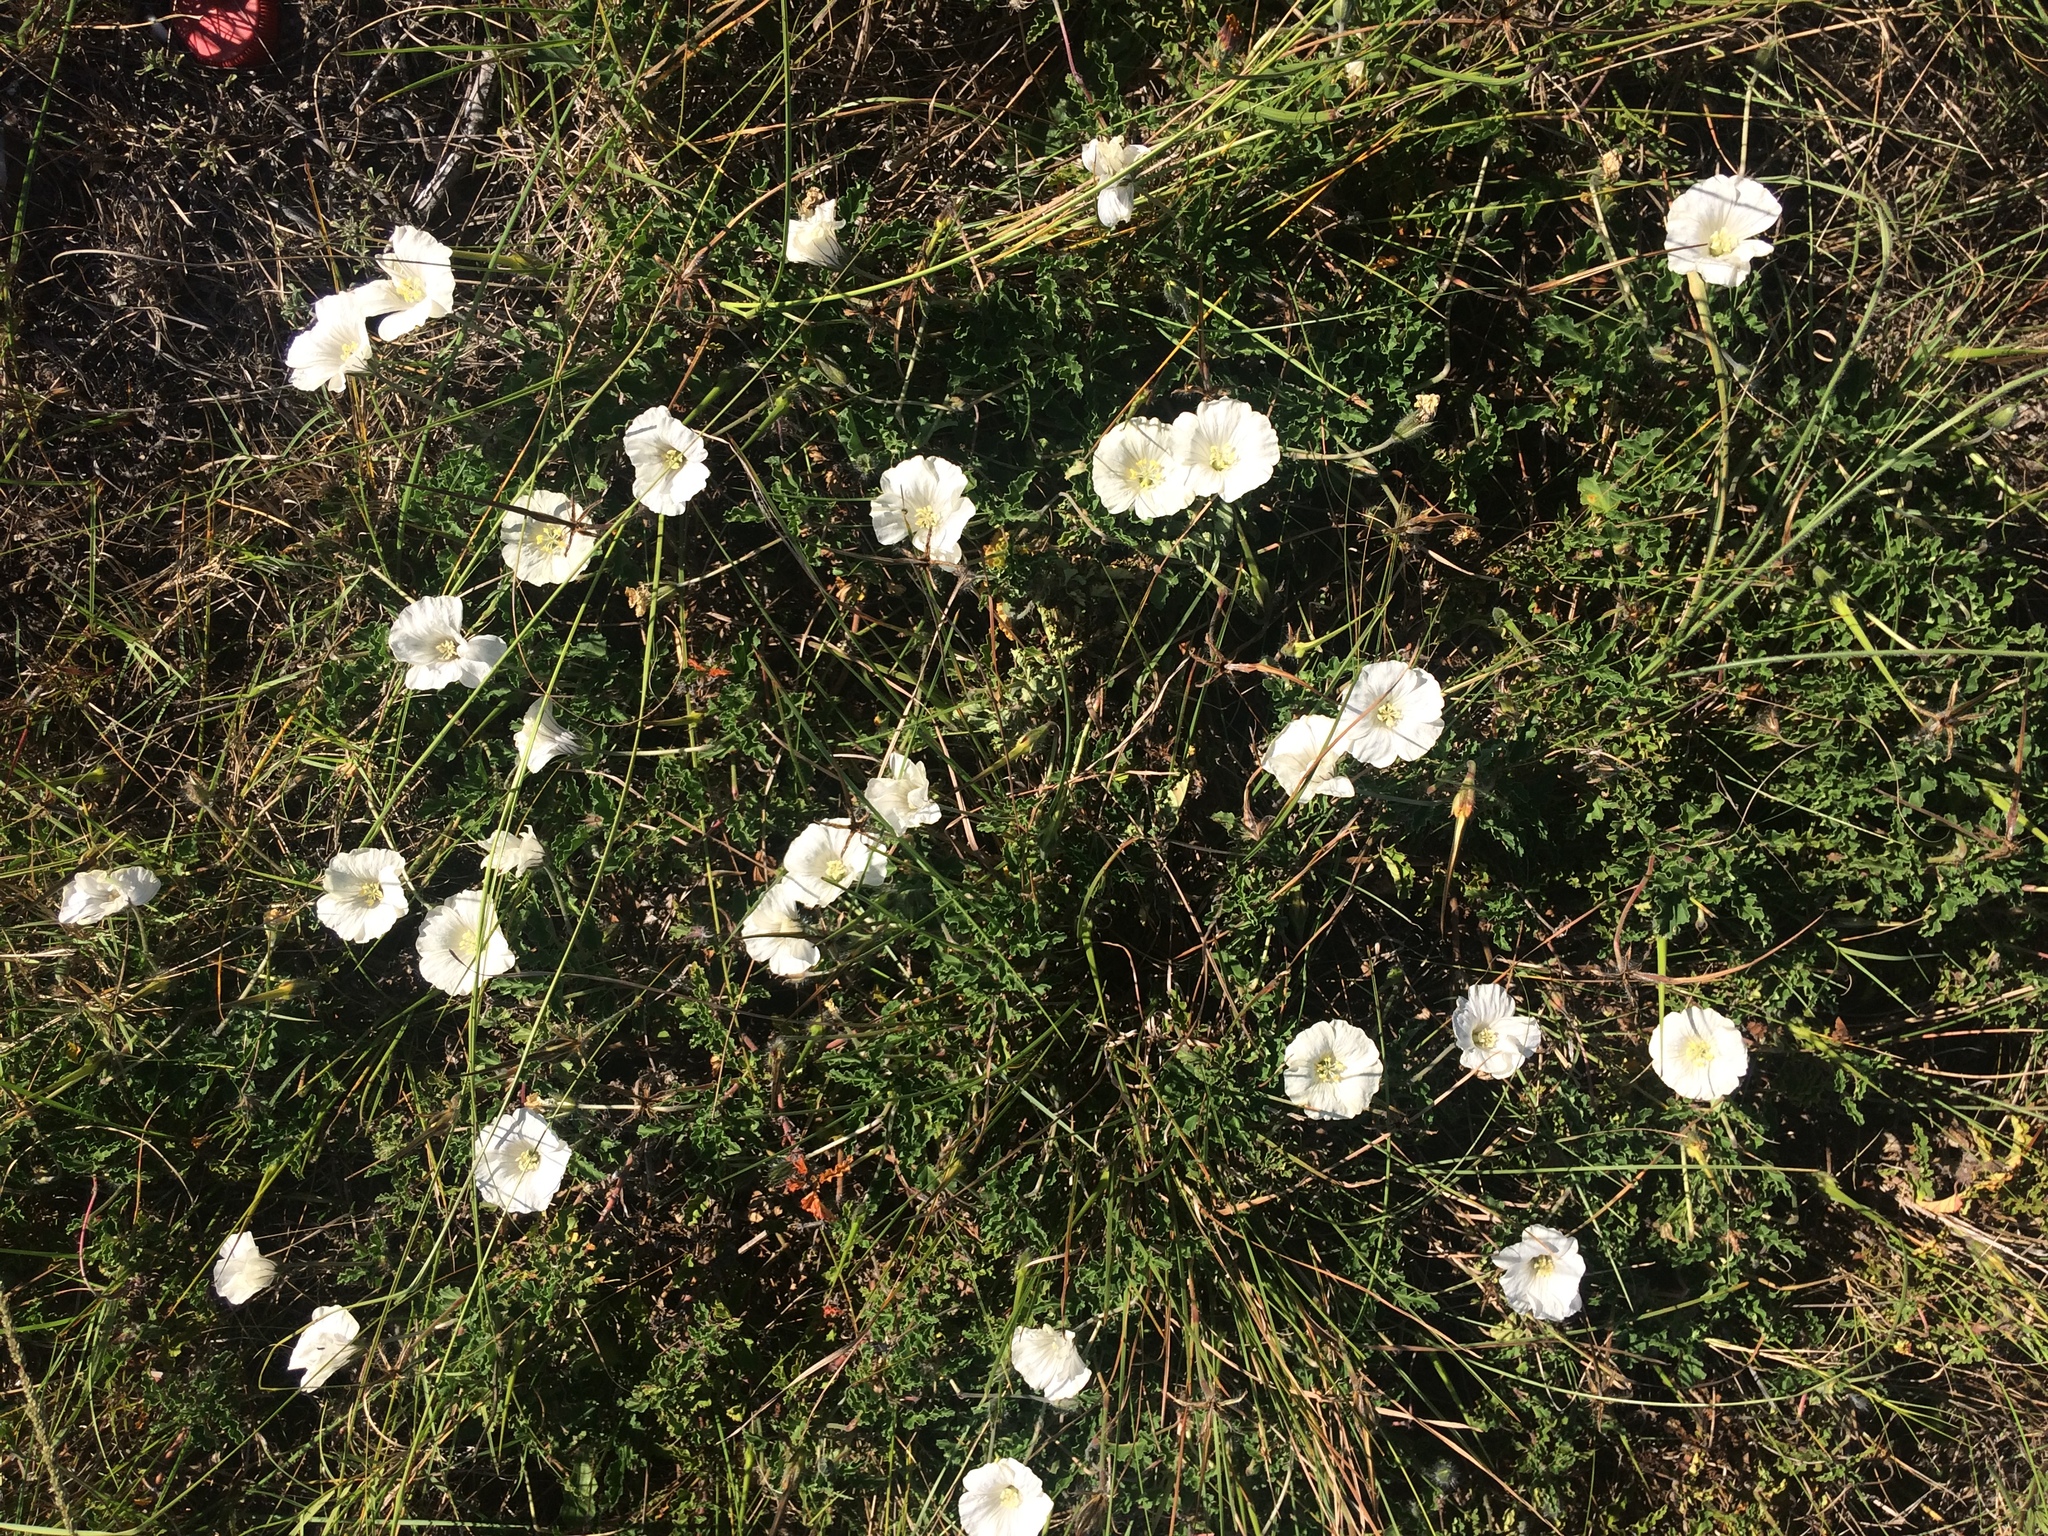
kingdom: Plantae
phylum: Tracheophyta
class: Magnoliopsida
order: Geraniales
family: Geraniaceae
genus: Monsonia
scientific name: Monsonia emarginata
